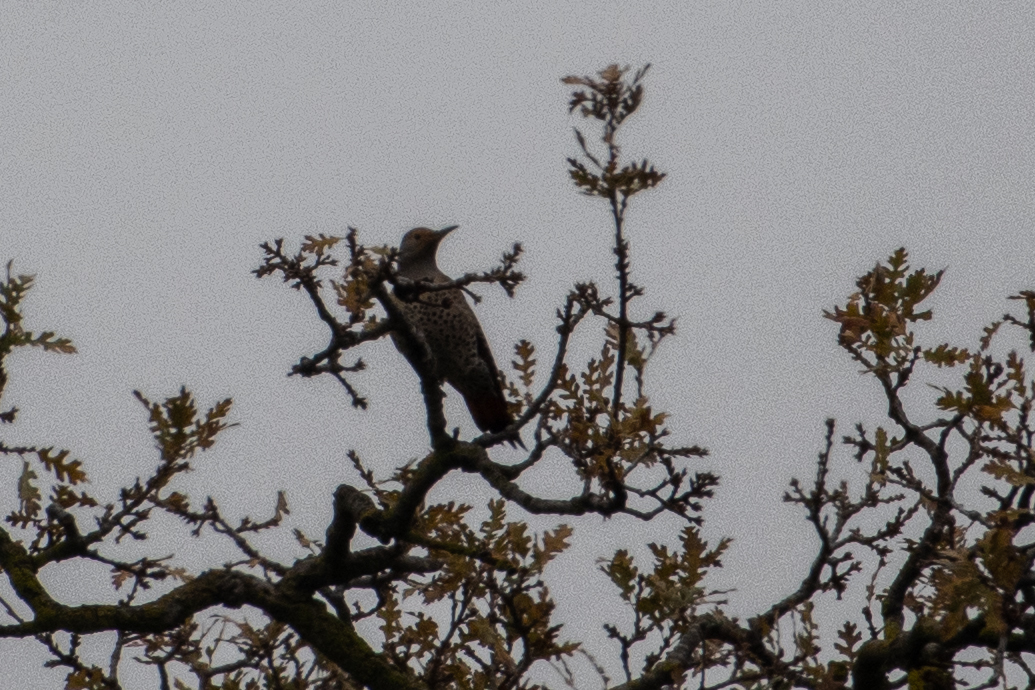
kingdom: Animalia
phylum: Chordata
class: Aves
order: Piciformes
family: Picidae
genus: Colaptes
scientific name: Colaptes auratus
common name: Northern flicker
